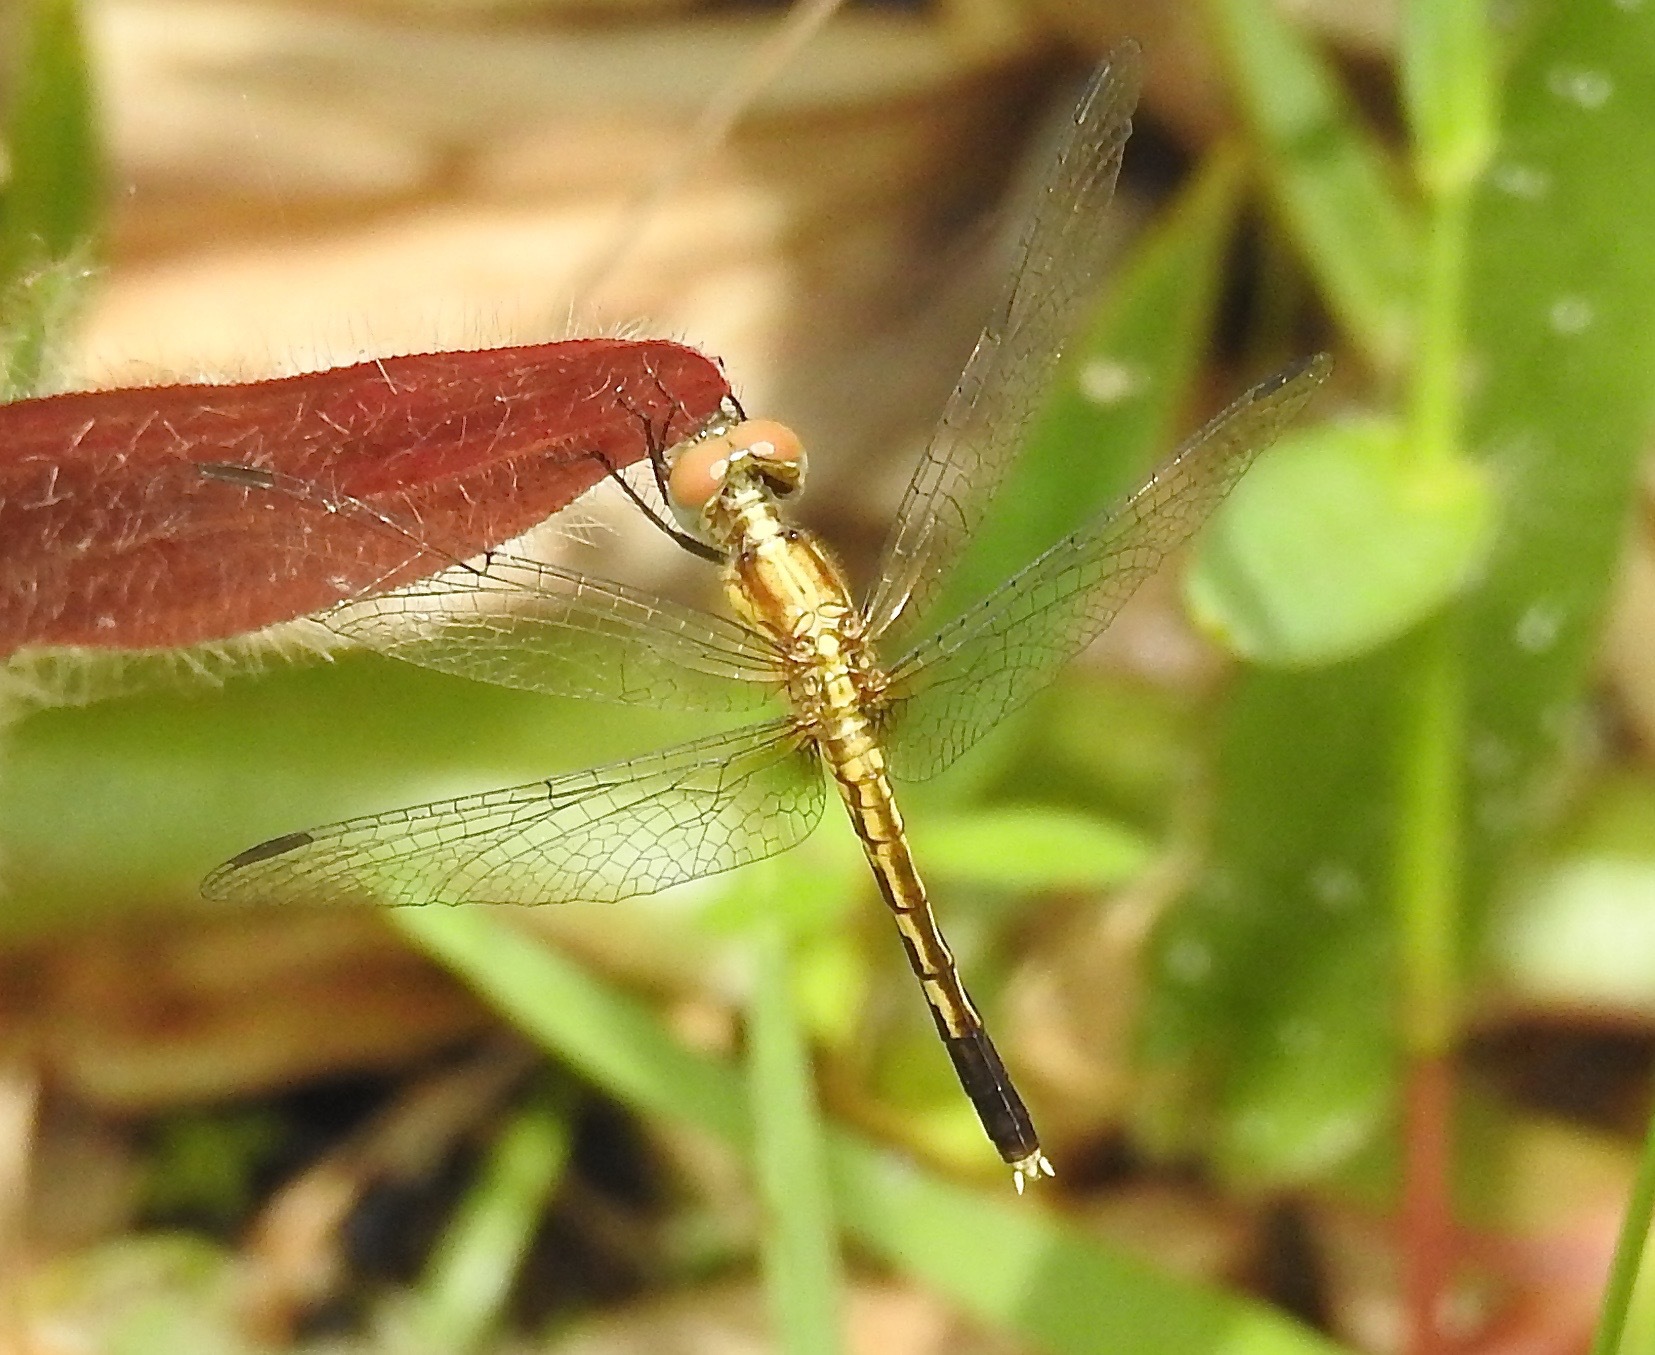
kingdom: Animalia
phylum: Arthropoda
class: Insecta
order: Odonata
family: Libellulidae
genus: Erythrodiplax
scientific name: Erythrodiplax minuscula
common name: Little blue dragonlet
